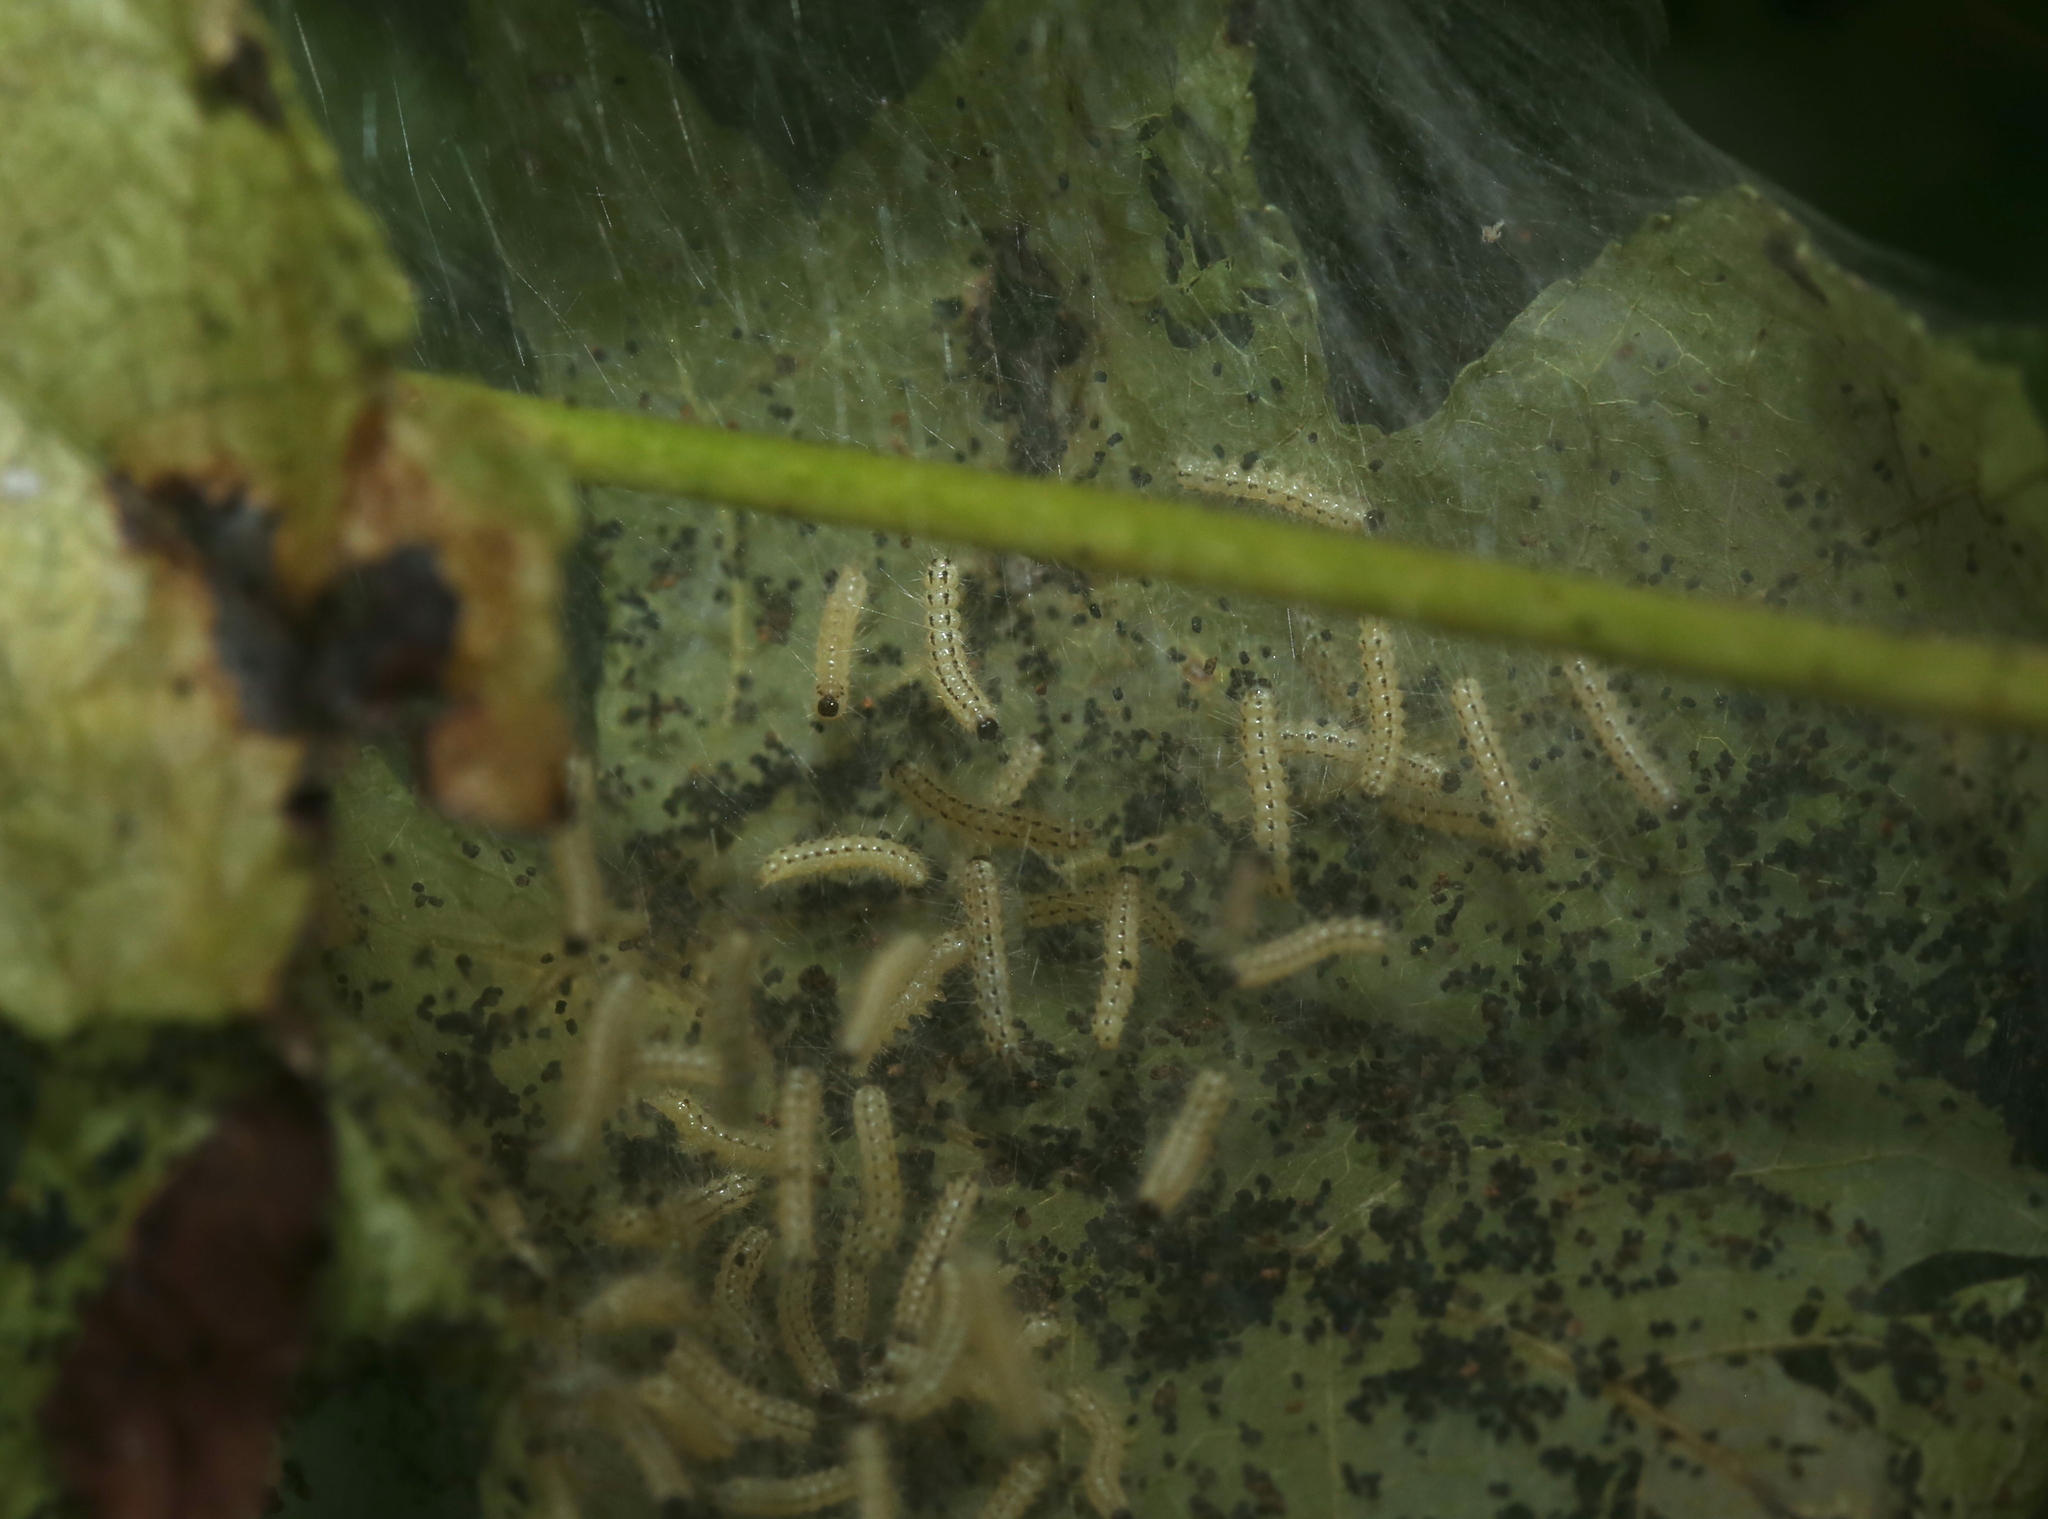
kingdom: Animalia
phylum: Arthropoda
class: Insecta
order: Lepidoptera
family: Erebidae
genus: Hyphantria
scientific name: Hyphantria cunea
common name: American white moth
